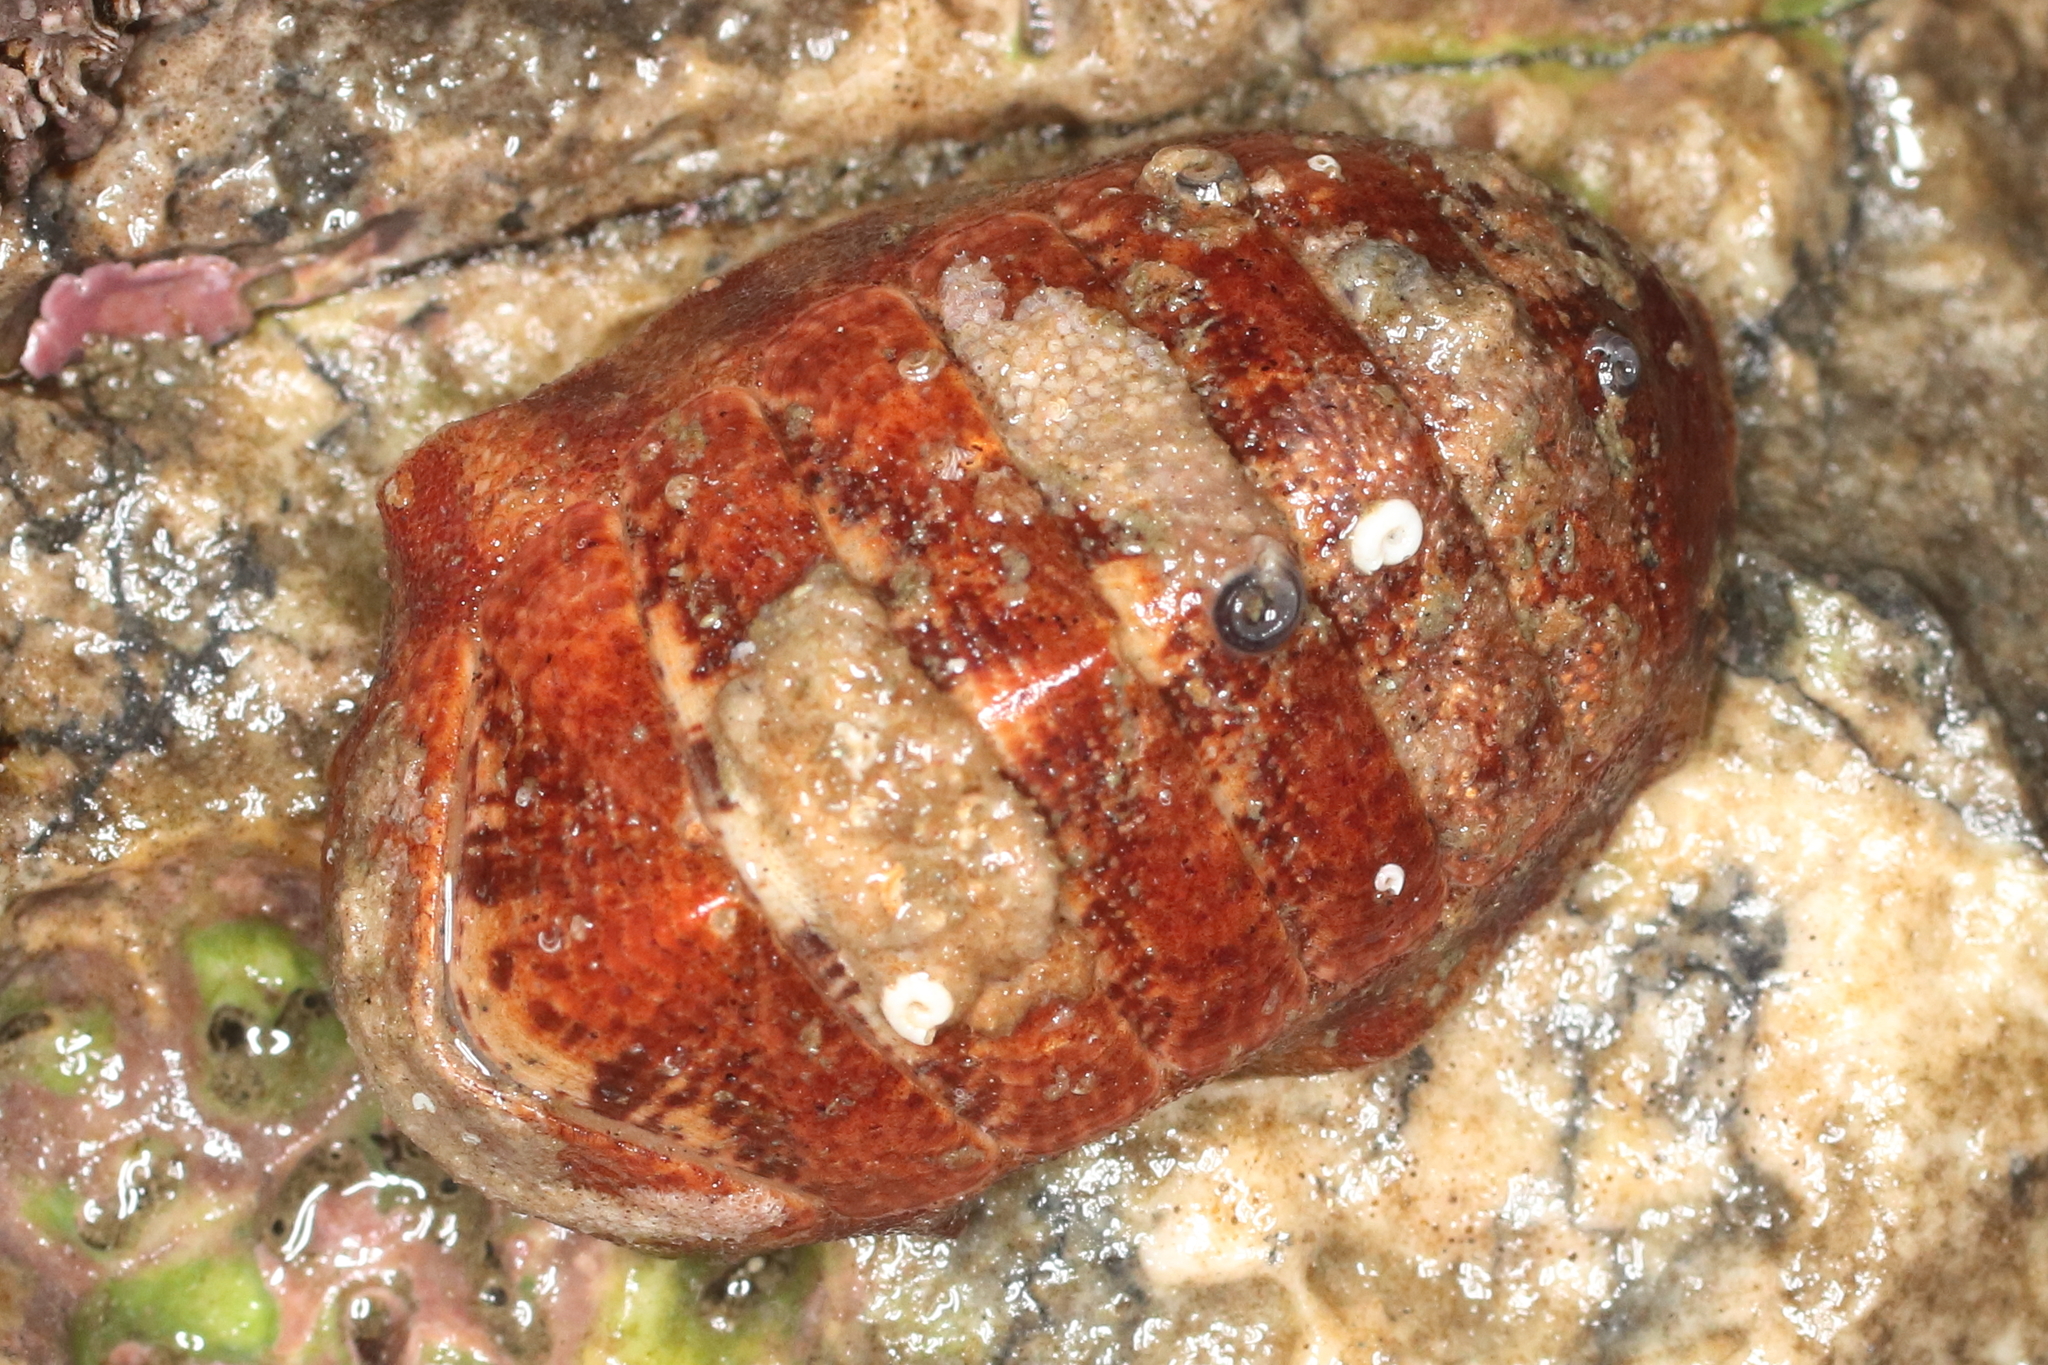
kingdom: Animalia
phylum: Mollusca
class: Polyplacophora
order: Chitonida
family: Ischnochitonidae
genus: Tripoplax
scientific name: Tripoplax trifida
